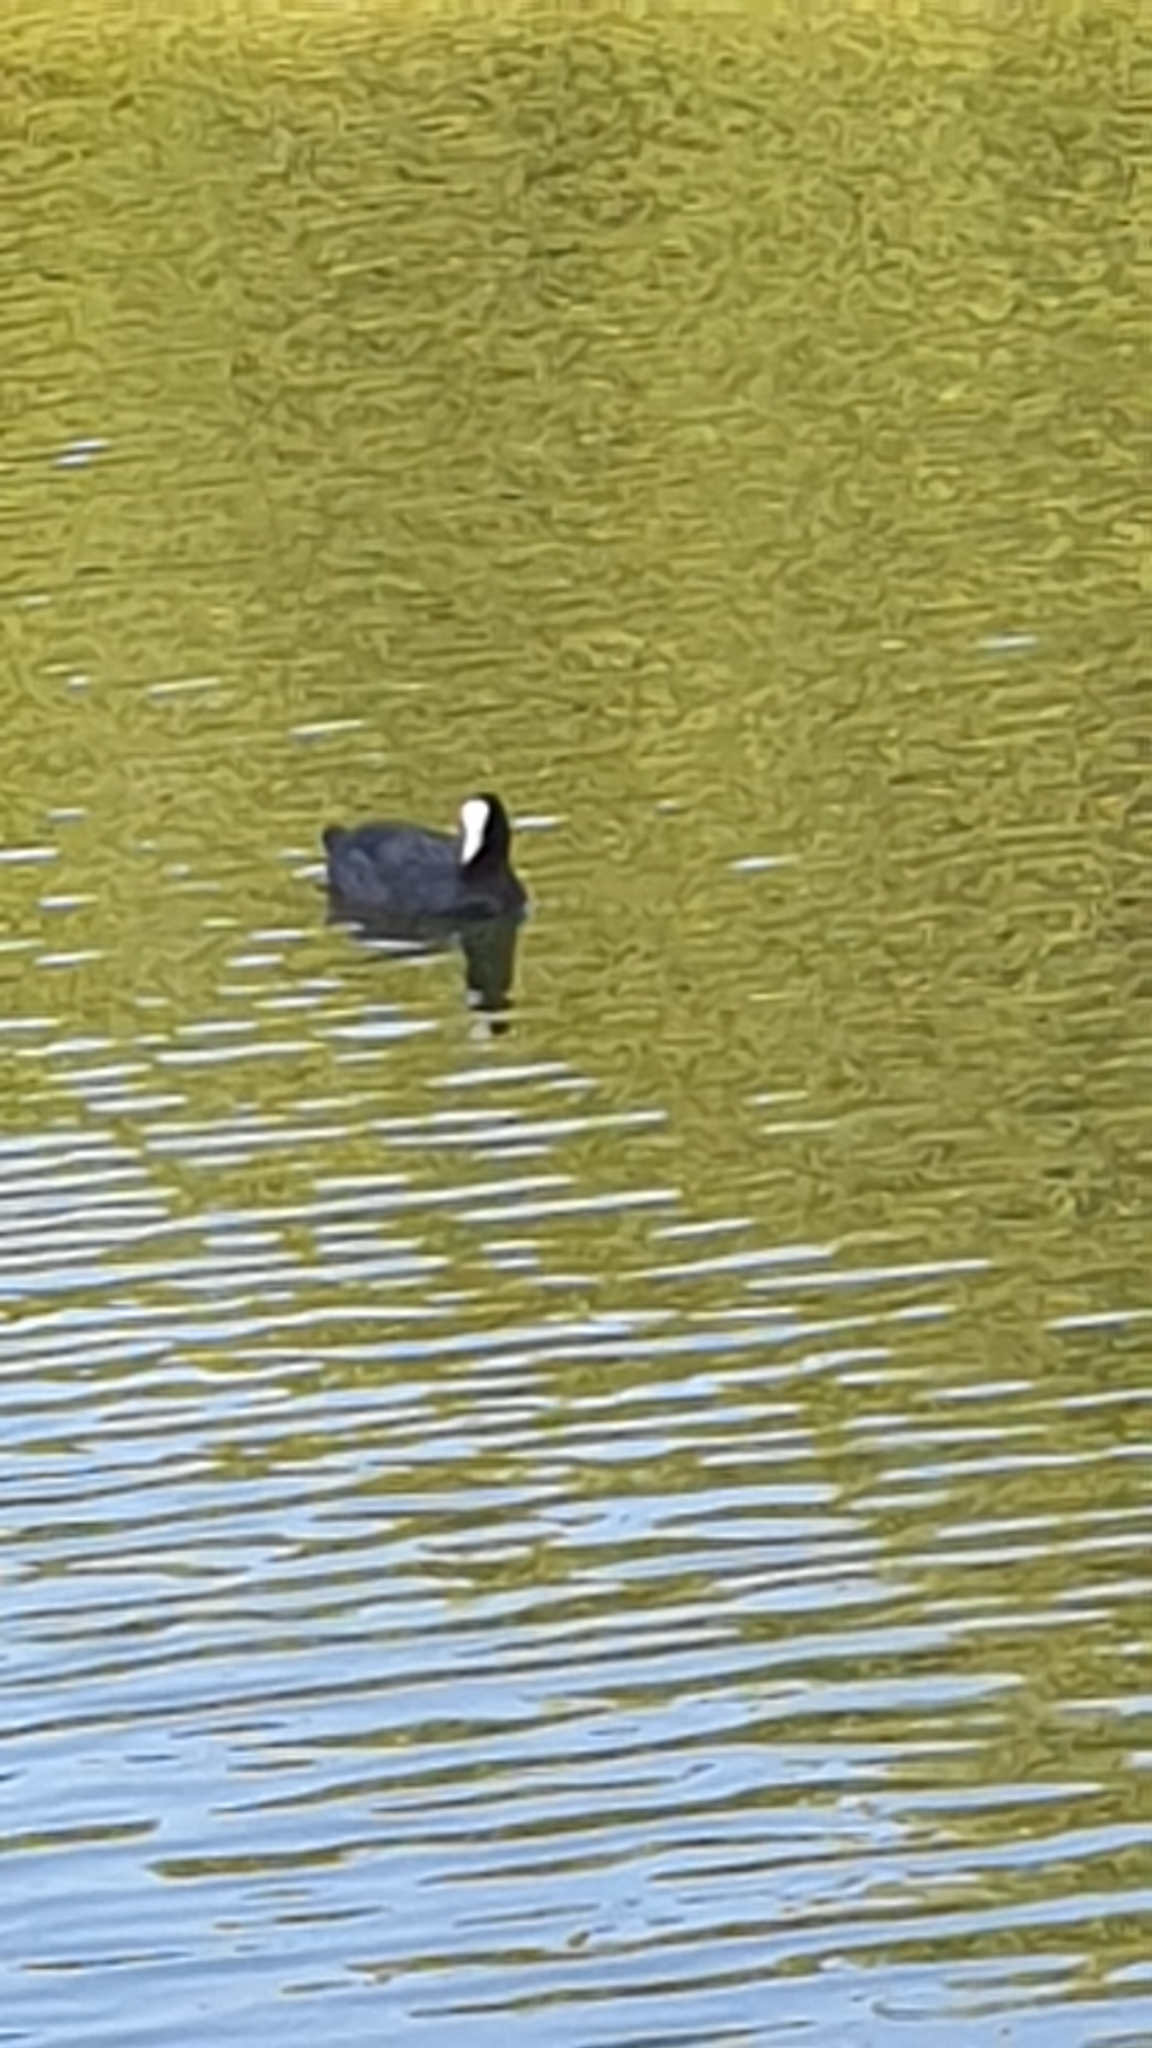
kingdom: Animalia
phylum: Chordata
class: Aves
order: Gruiformes
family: Rallidae
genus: Fulica
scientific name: Fulica atra
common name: Eurasian coot
